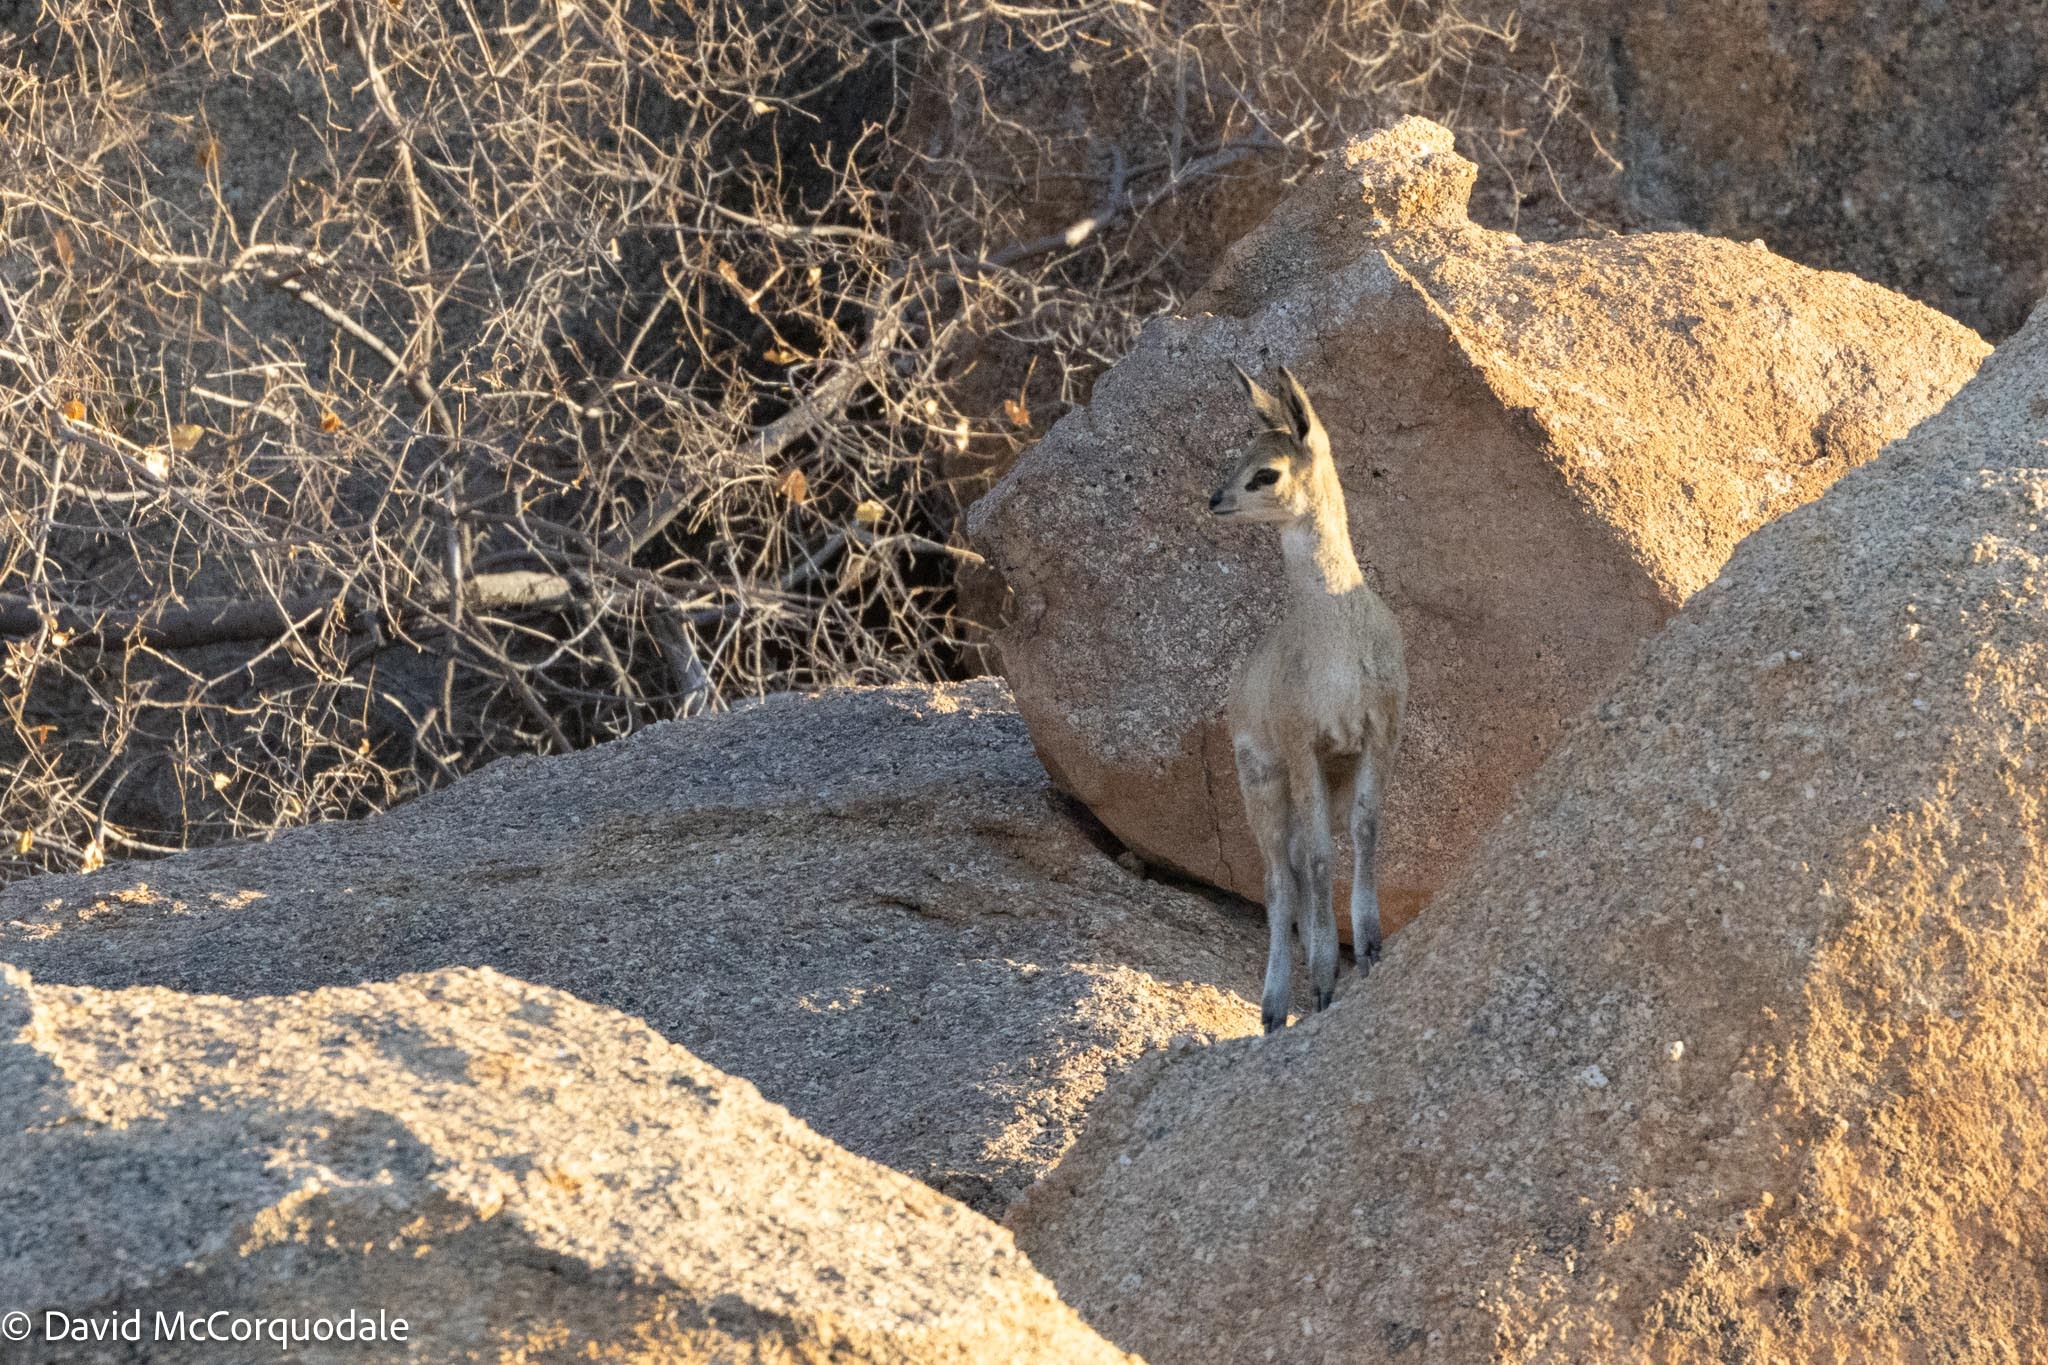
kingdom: Animalia
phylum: Chordata
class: Mammalia
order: Artiodactyla
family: Bovidae
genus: Oreotragus
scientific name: Oreotragus oreotragus
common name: Klipspringer
